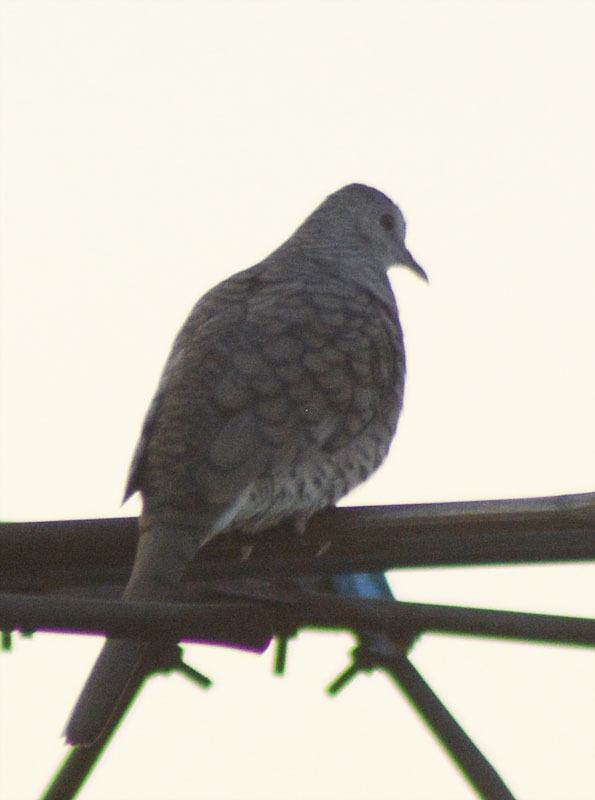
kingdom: Animalia
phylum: Chordata
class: Aves
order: Columbiformes
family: Columbidae
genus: Columbina
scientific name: Columbina inca
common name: Inca dove
